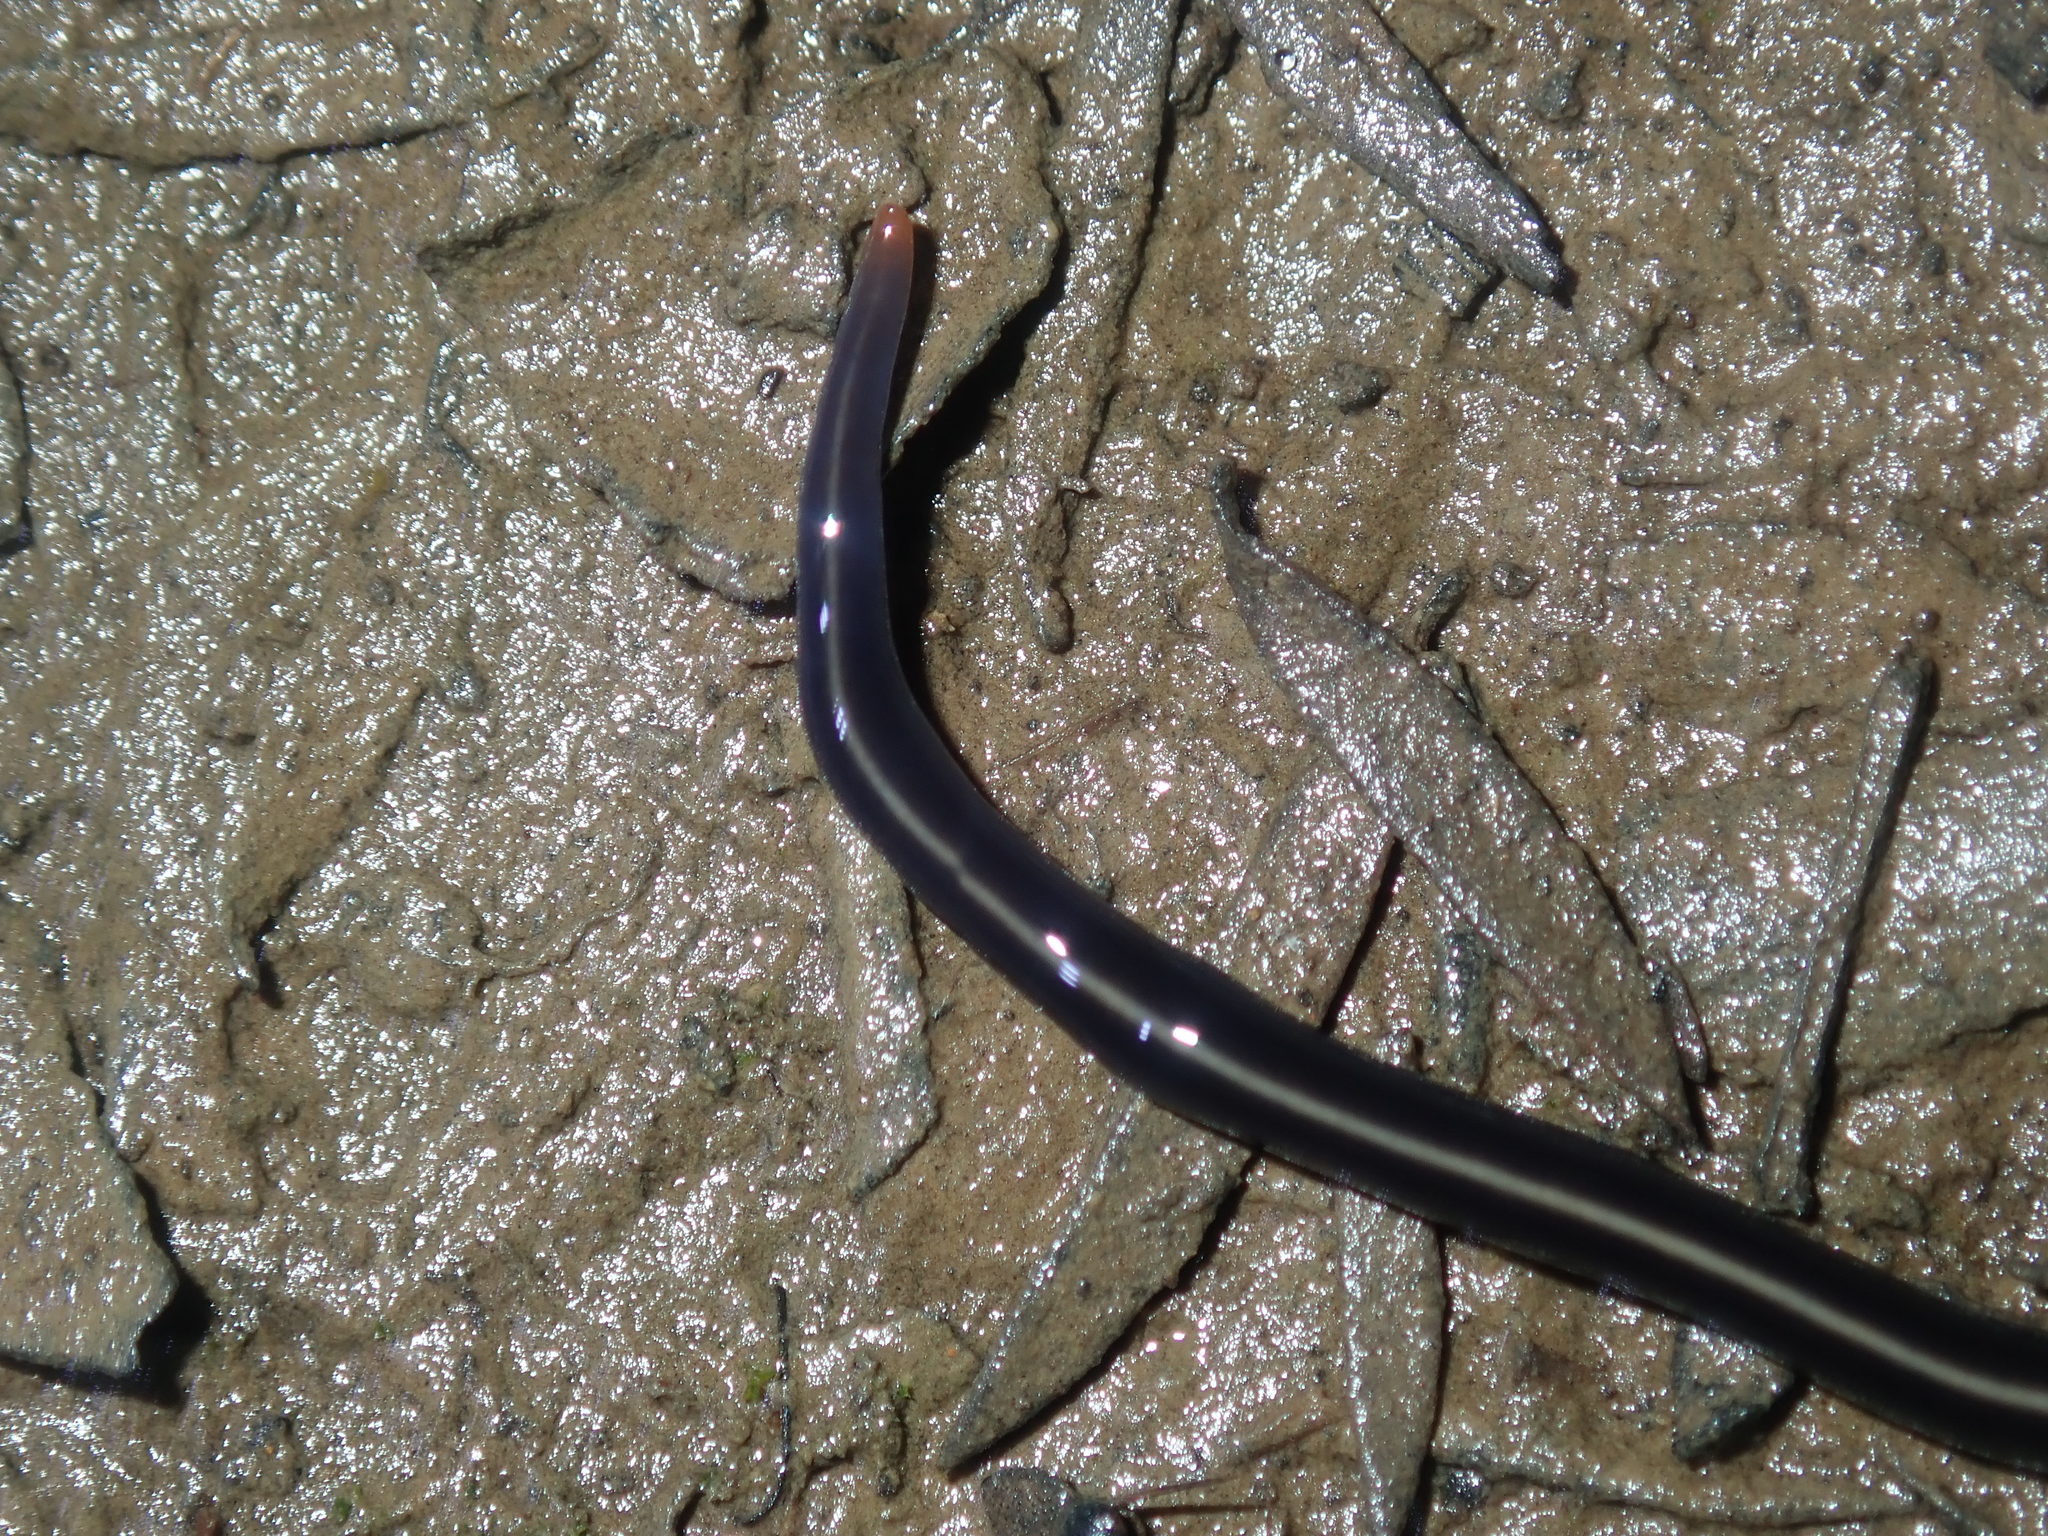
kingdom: Animalia
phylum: Platyhelminthes
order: Tricladida
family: Geoplanidae
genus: Caenoplana
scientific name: Caenoplana coerulea
